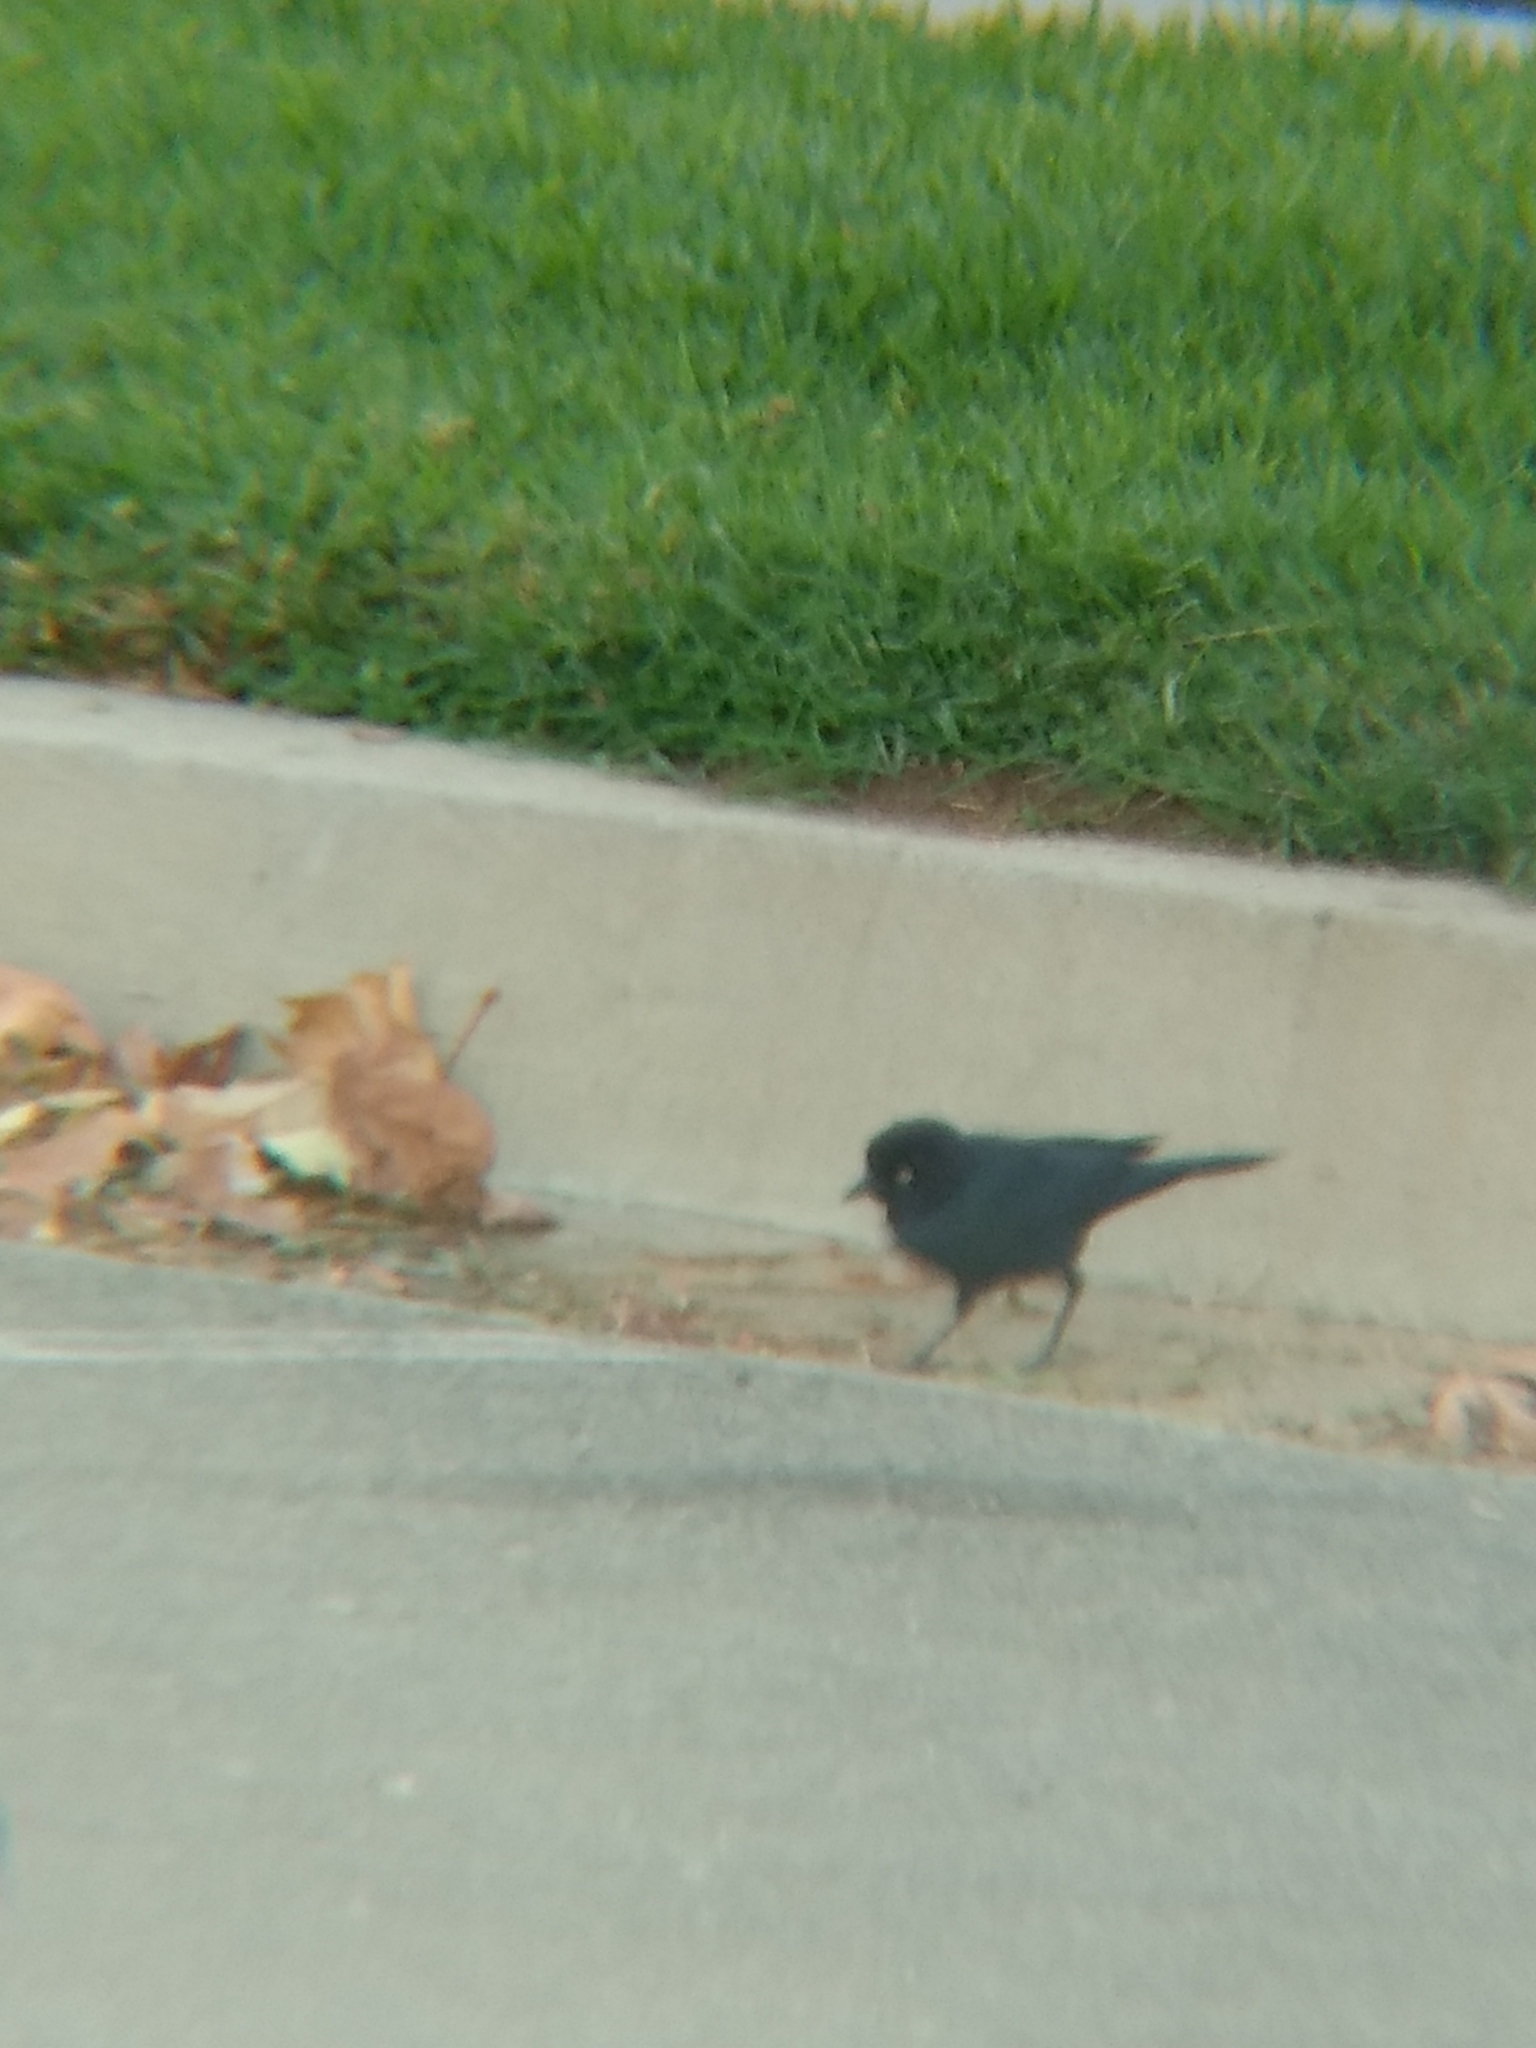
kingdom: Animalia
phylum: Chordata
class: Aves
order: Passeriformes
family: Icteridae
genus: Euphagus
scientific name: Euphagus cyanocephalus
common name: Brewer's blackbird
